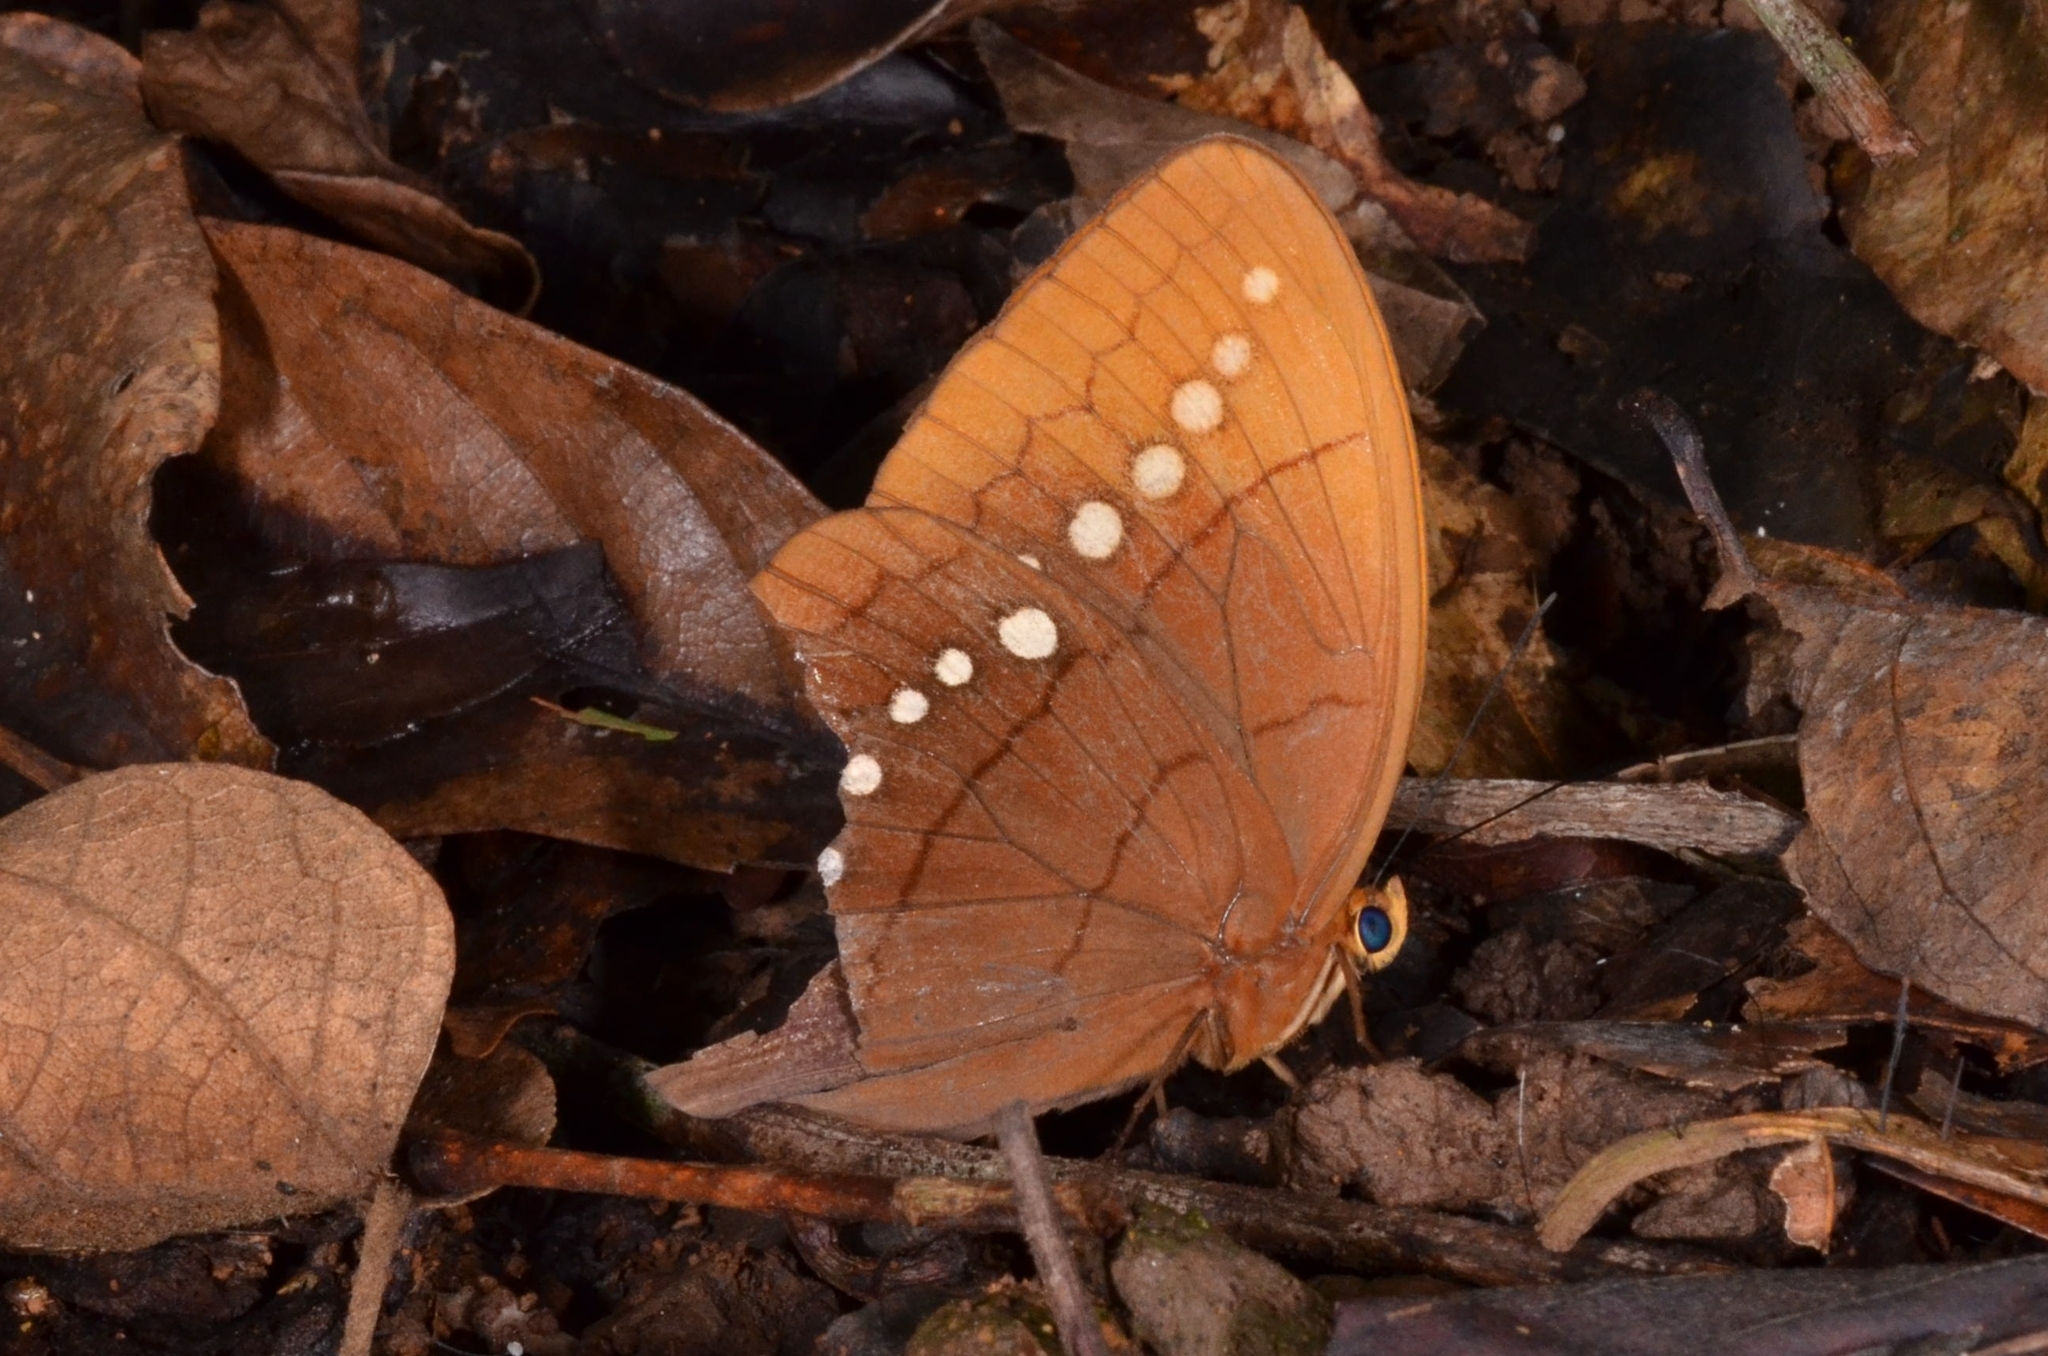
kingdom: Animalia
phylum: Arthropoda
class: Insecta
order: Lepidoptera
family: Nymphalidae
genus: Faunis
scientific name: Faunis eumeus
